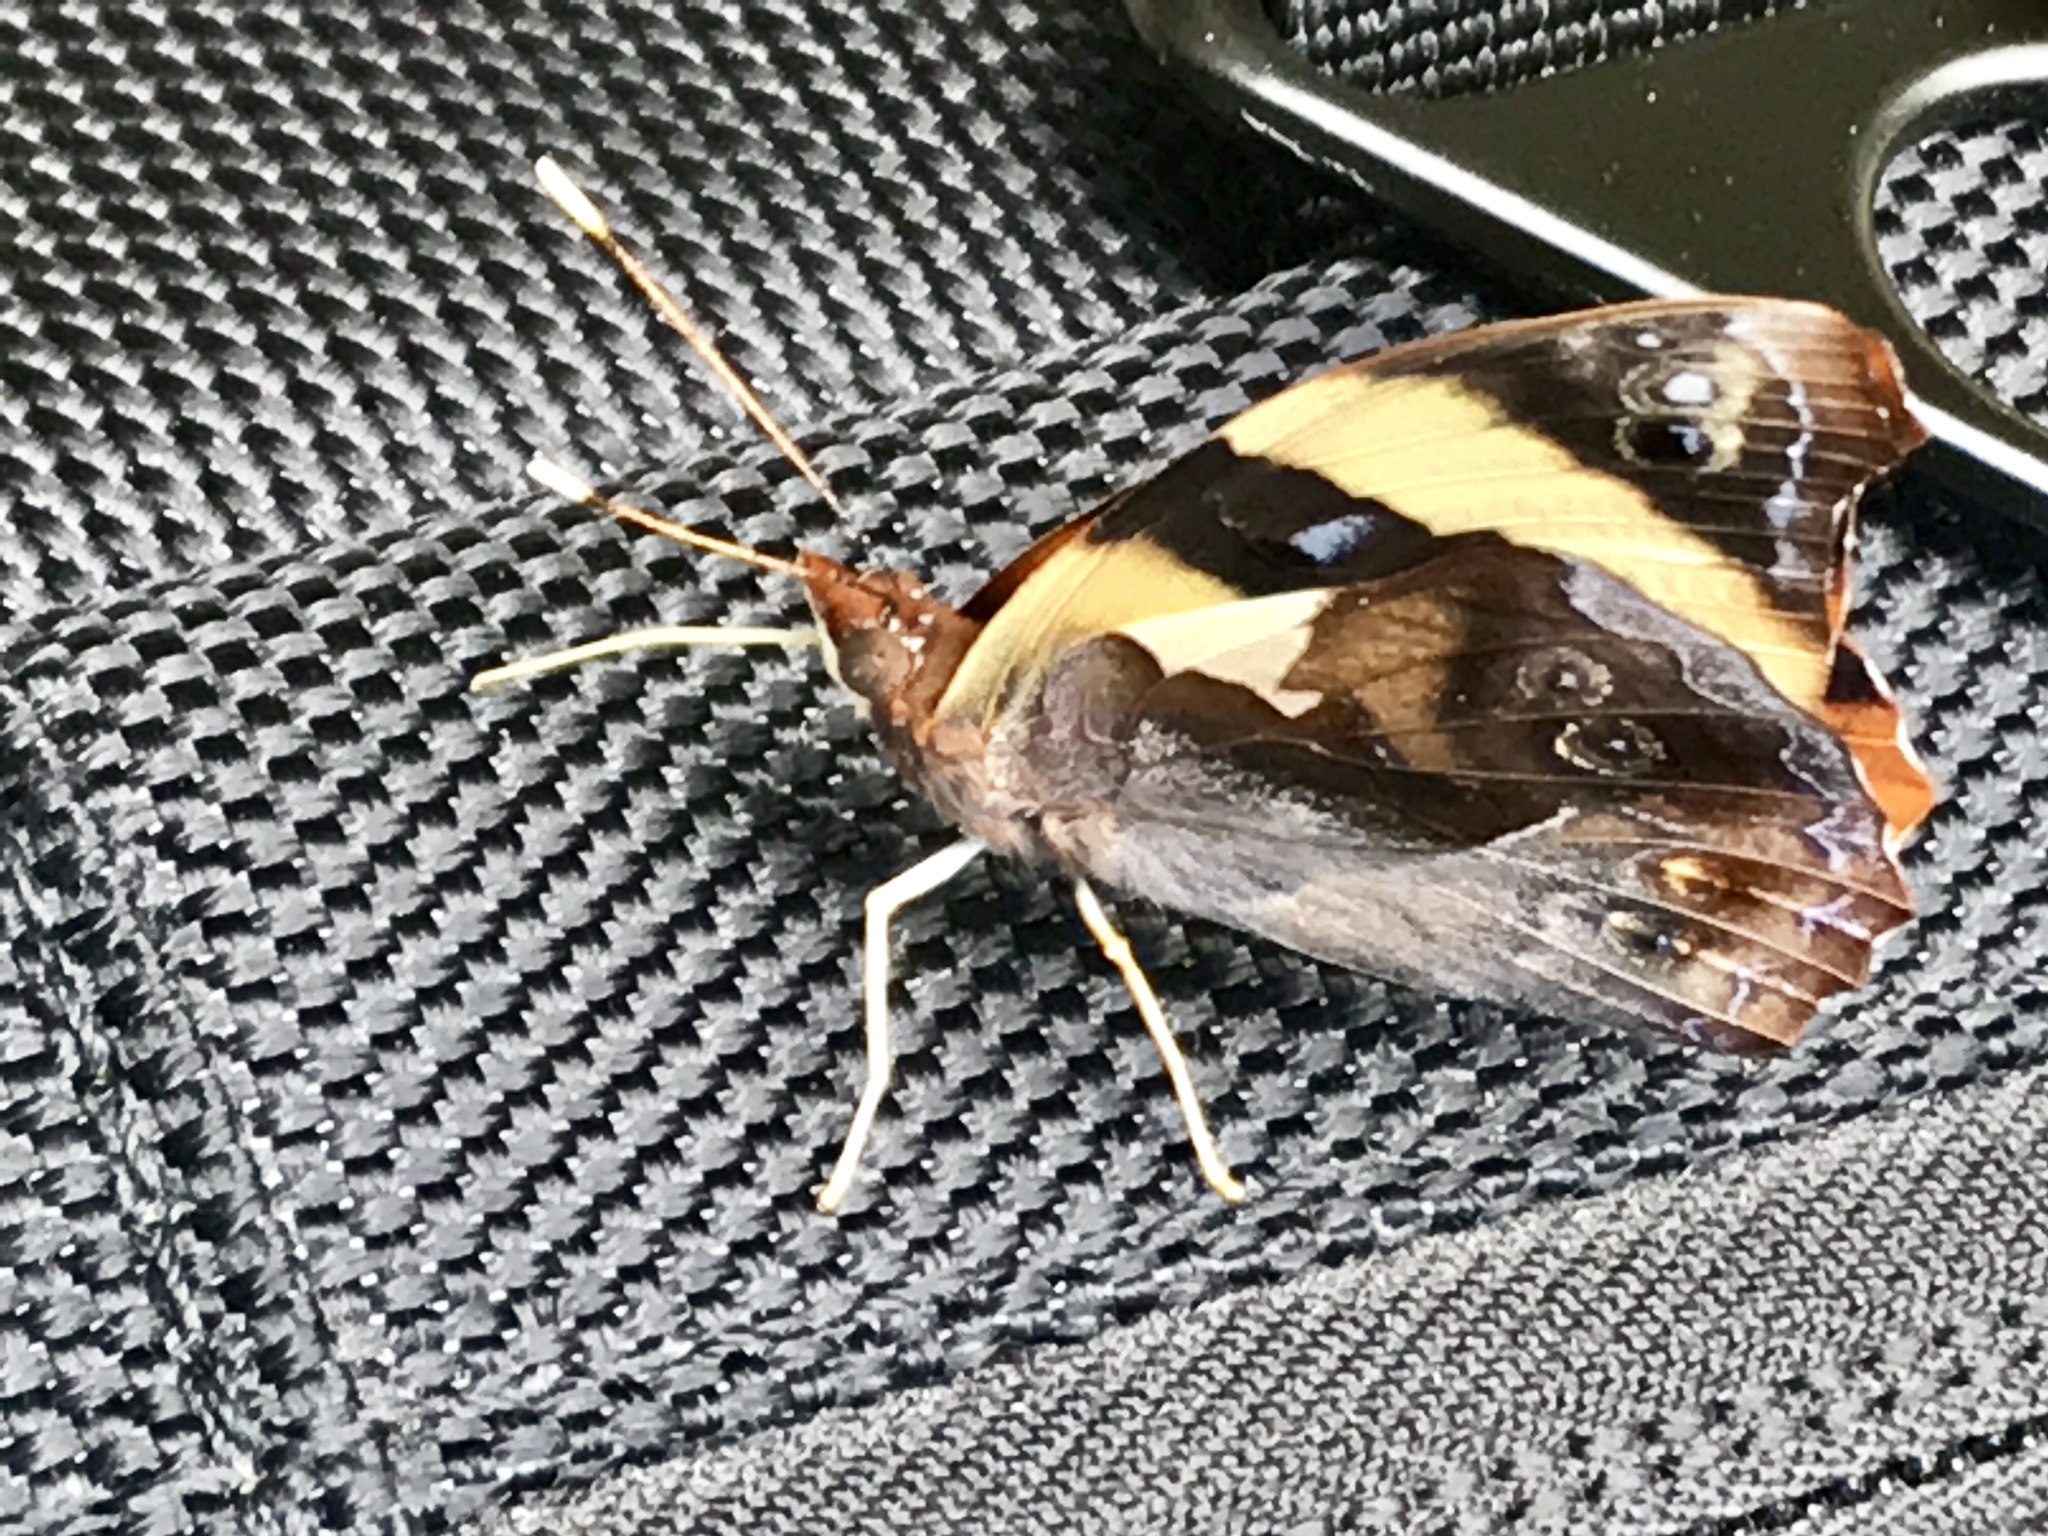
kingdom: Animalia
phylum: Arthropoda
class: Insecta
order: Lepidoptera
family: Nymphalidae
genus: Epiphile
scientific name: Epiphile adrasta
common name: Common banner
